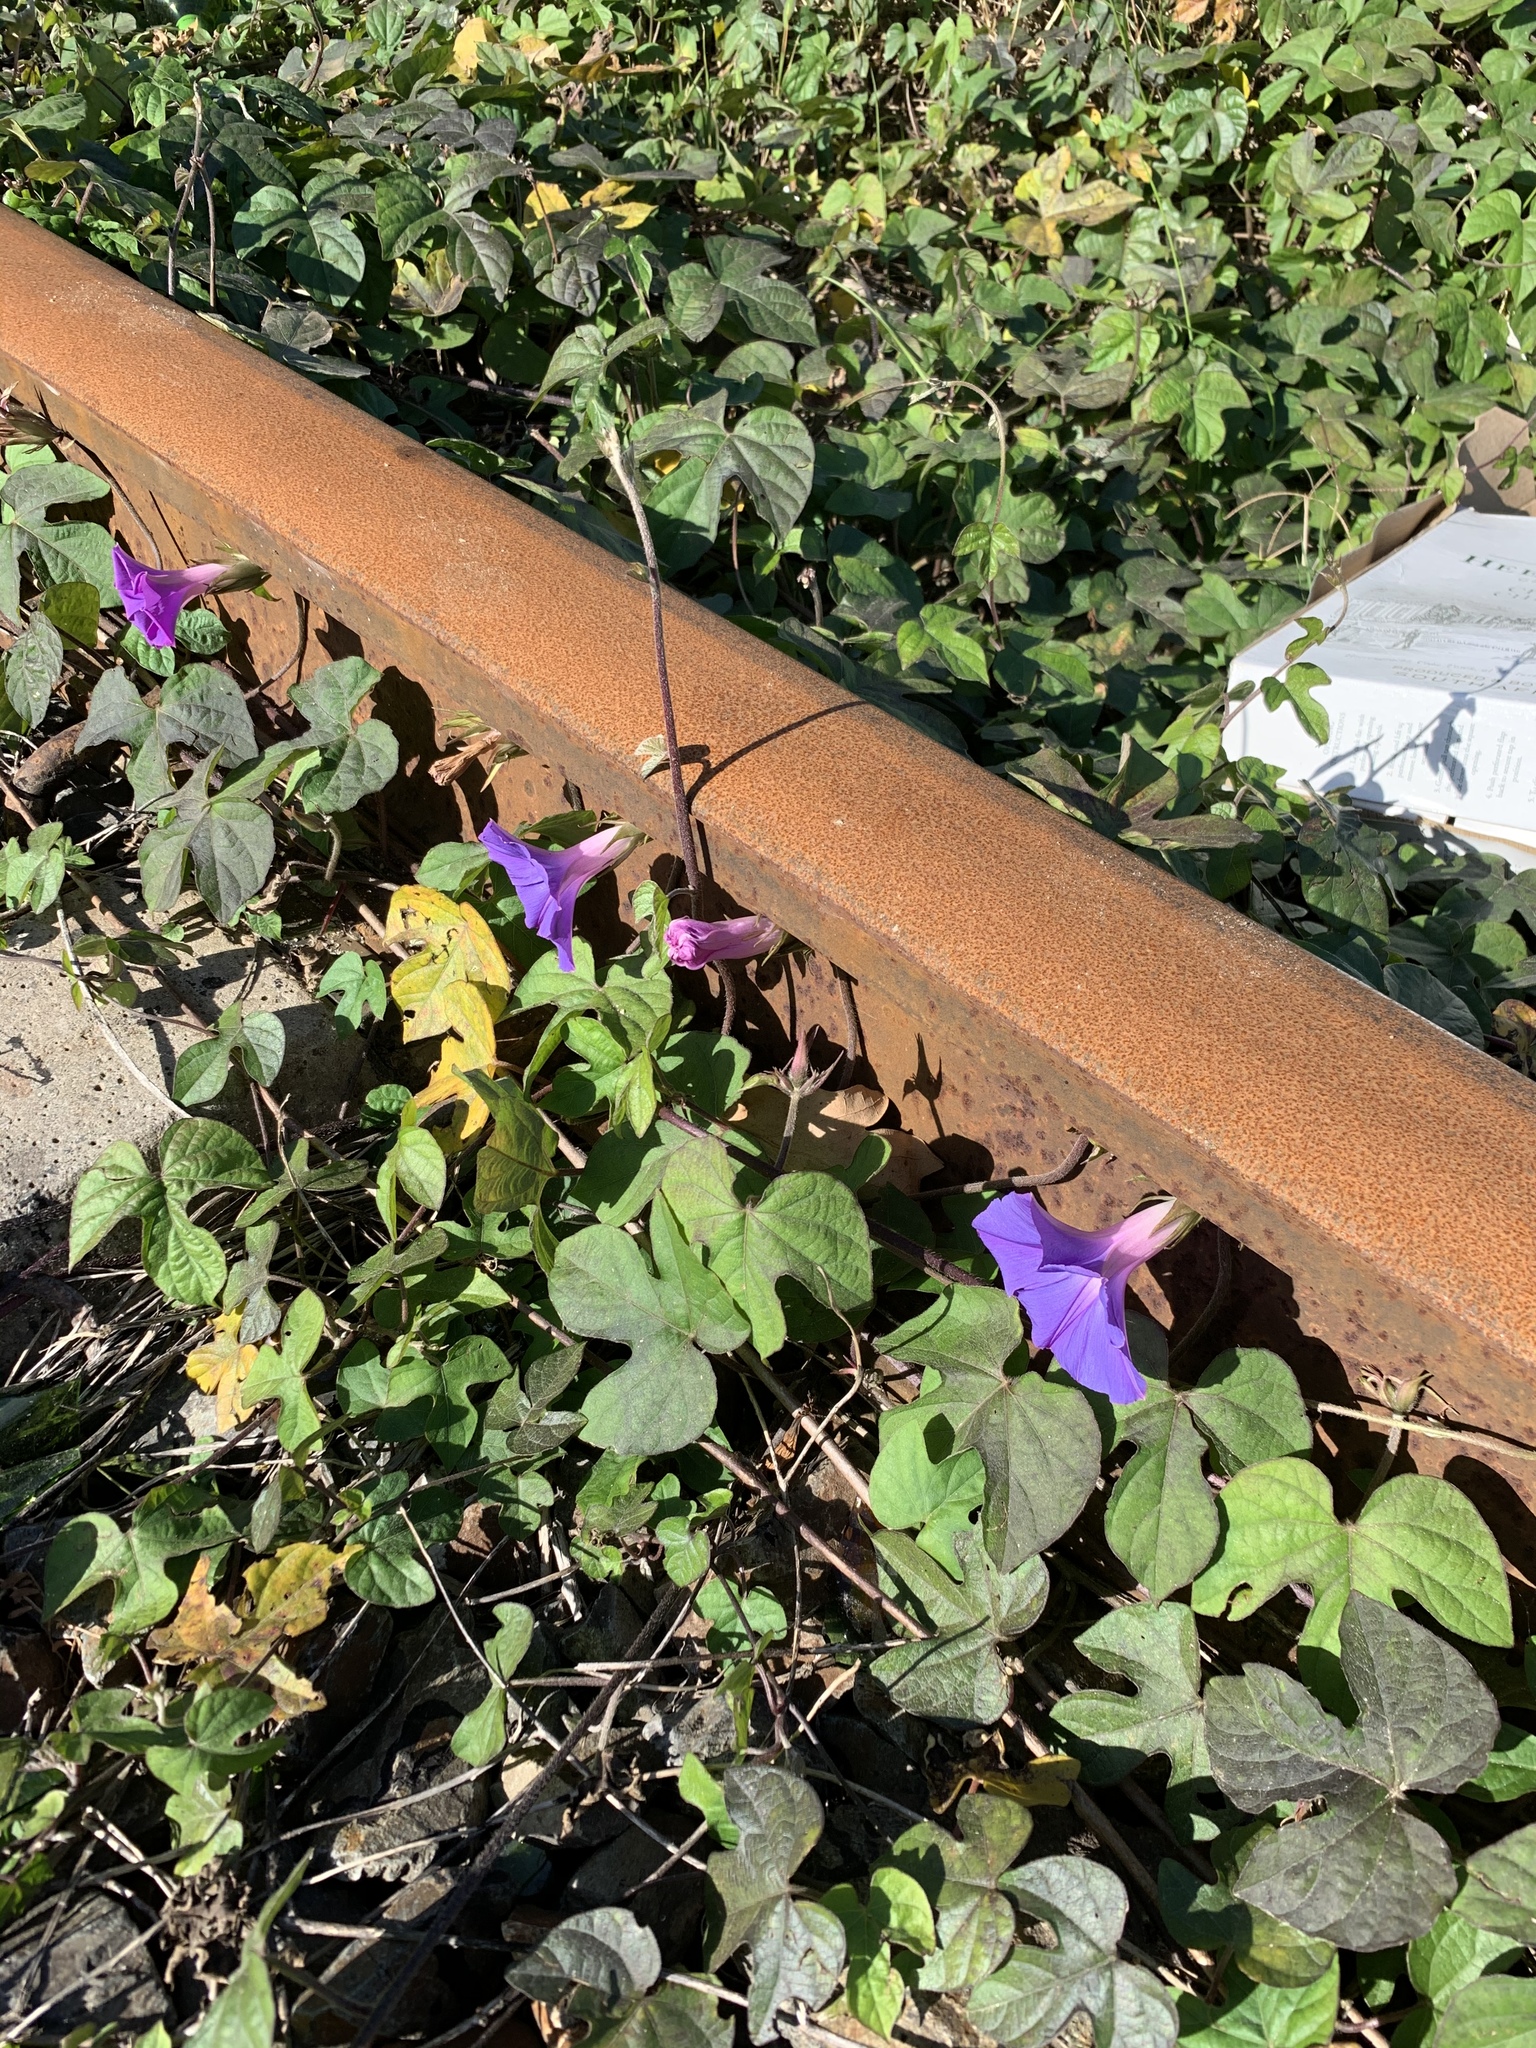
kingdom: Plantae
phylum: Tracheophyta
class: Magnoliopsida
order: Solanales
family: Convolvulaceae
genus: Ipomoea
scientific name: Ipomoea indica
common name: Blue dawnflower
